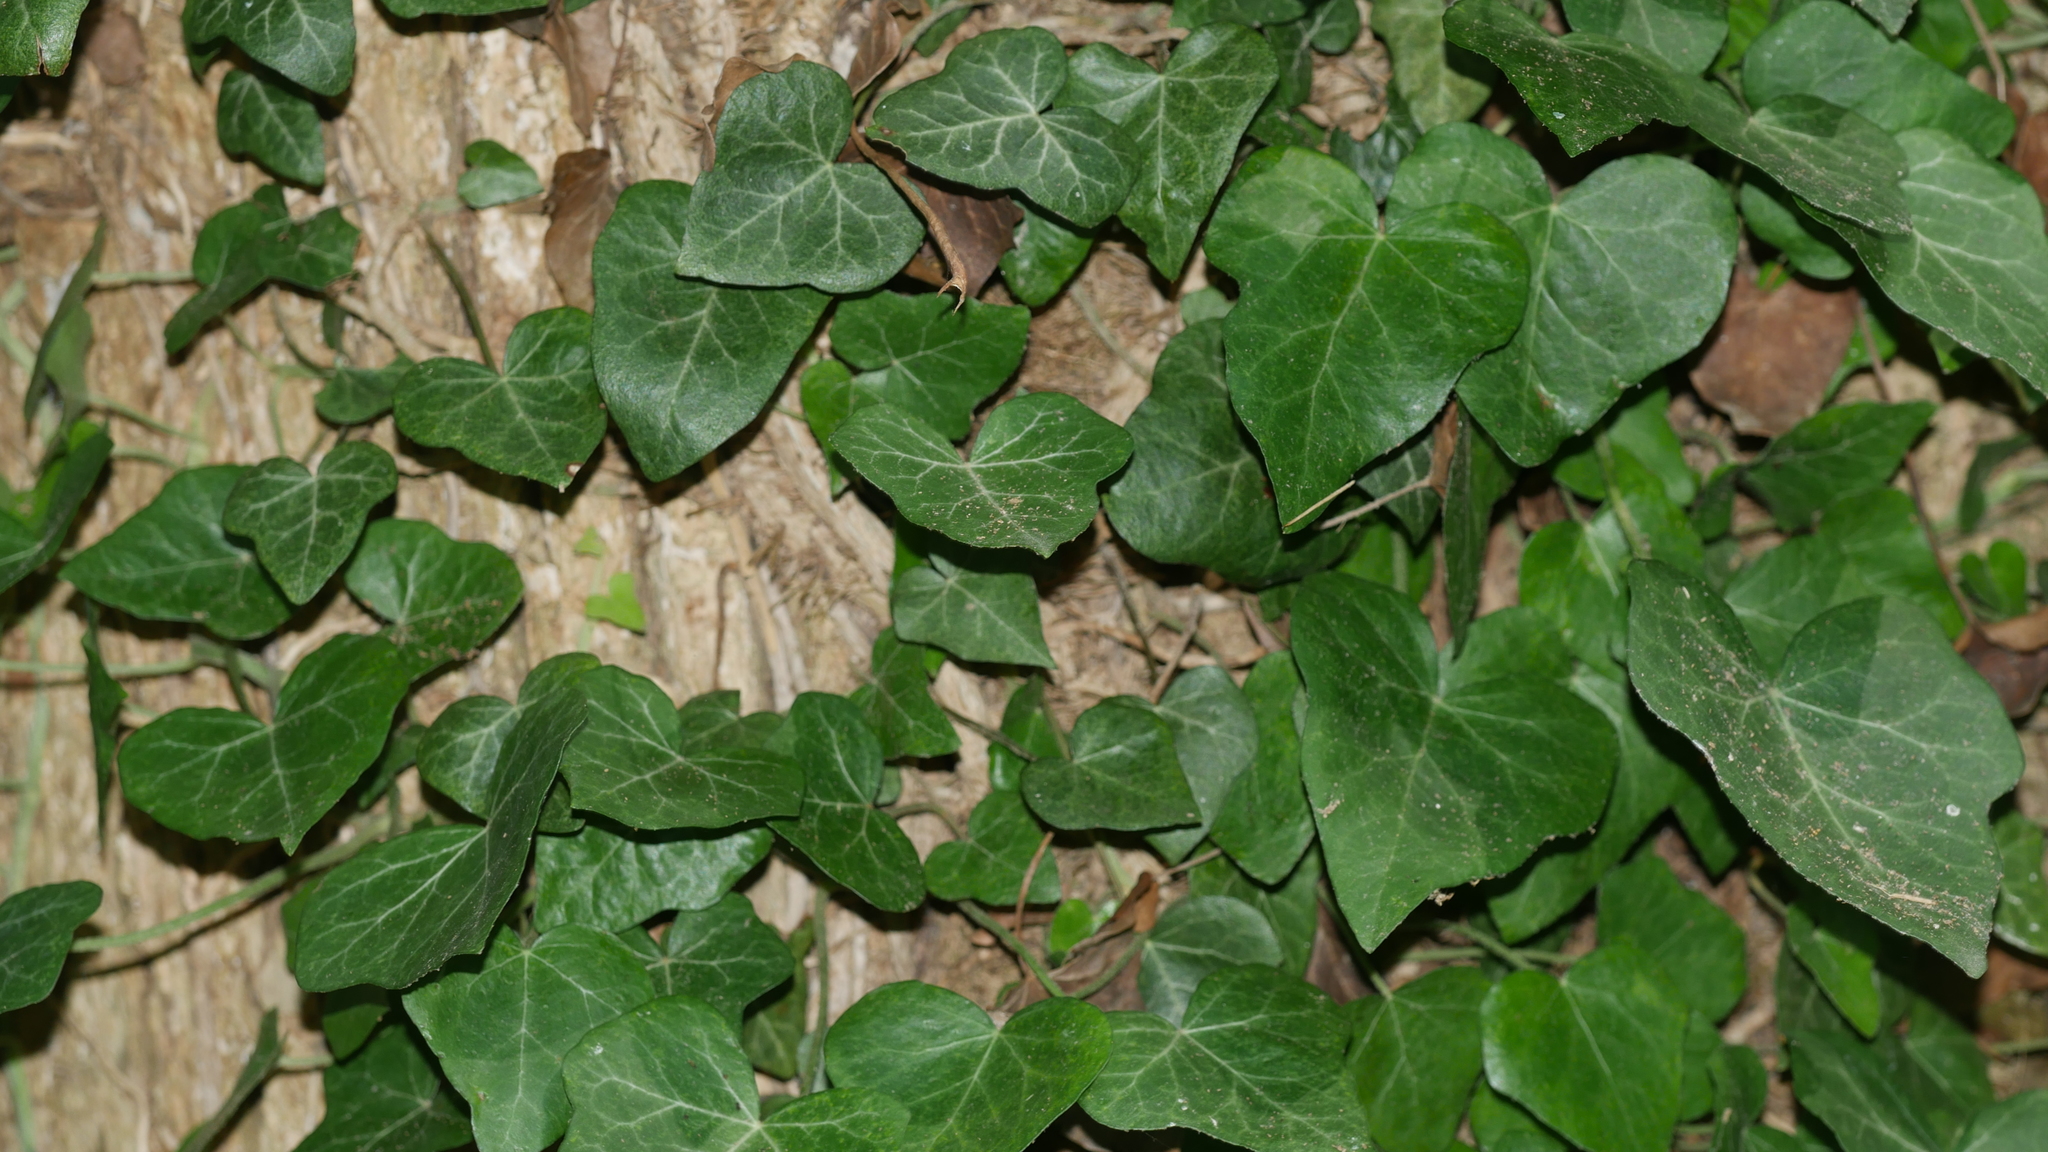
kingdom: Plantae
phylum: Tracheophyta
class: Magnoliopsida
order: Apiales
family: Araliaceae
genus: Hedera
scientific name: Hedera helix
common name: Ivy
